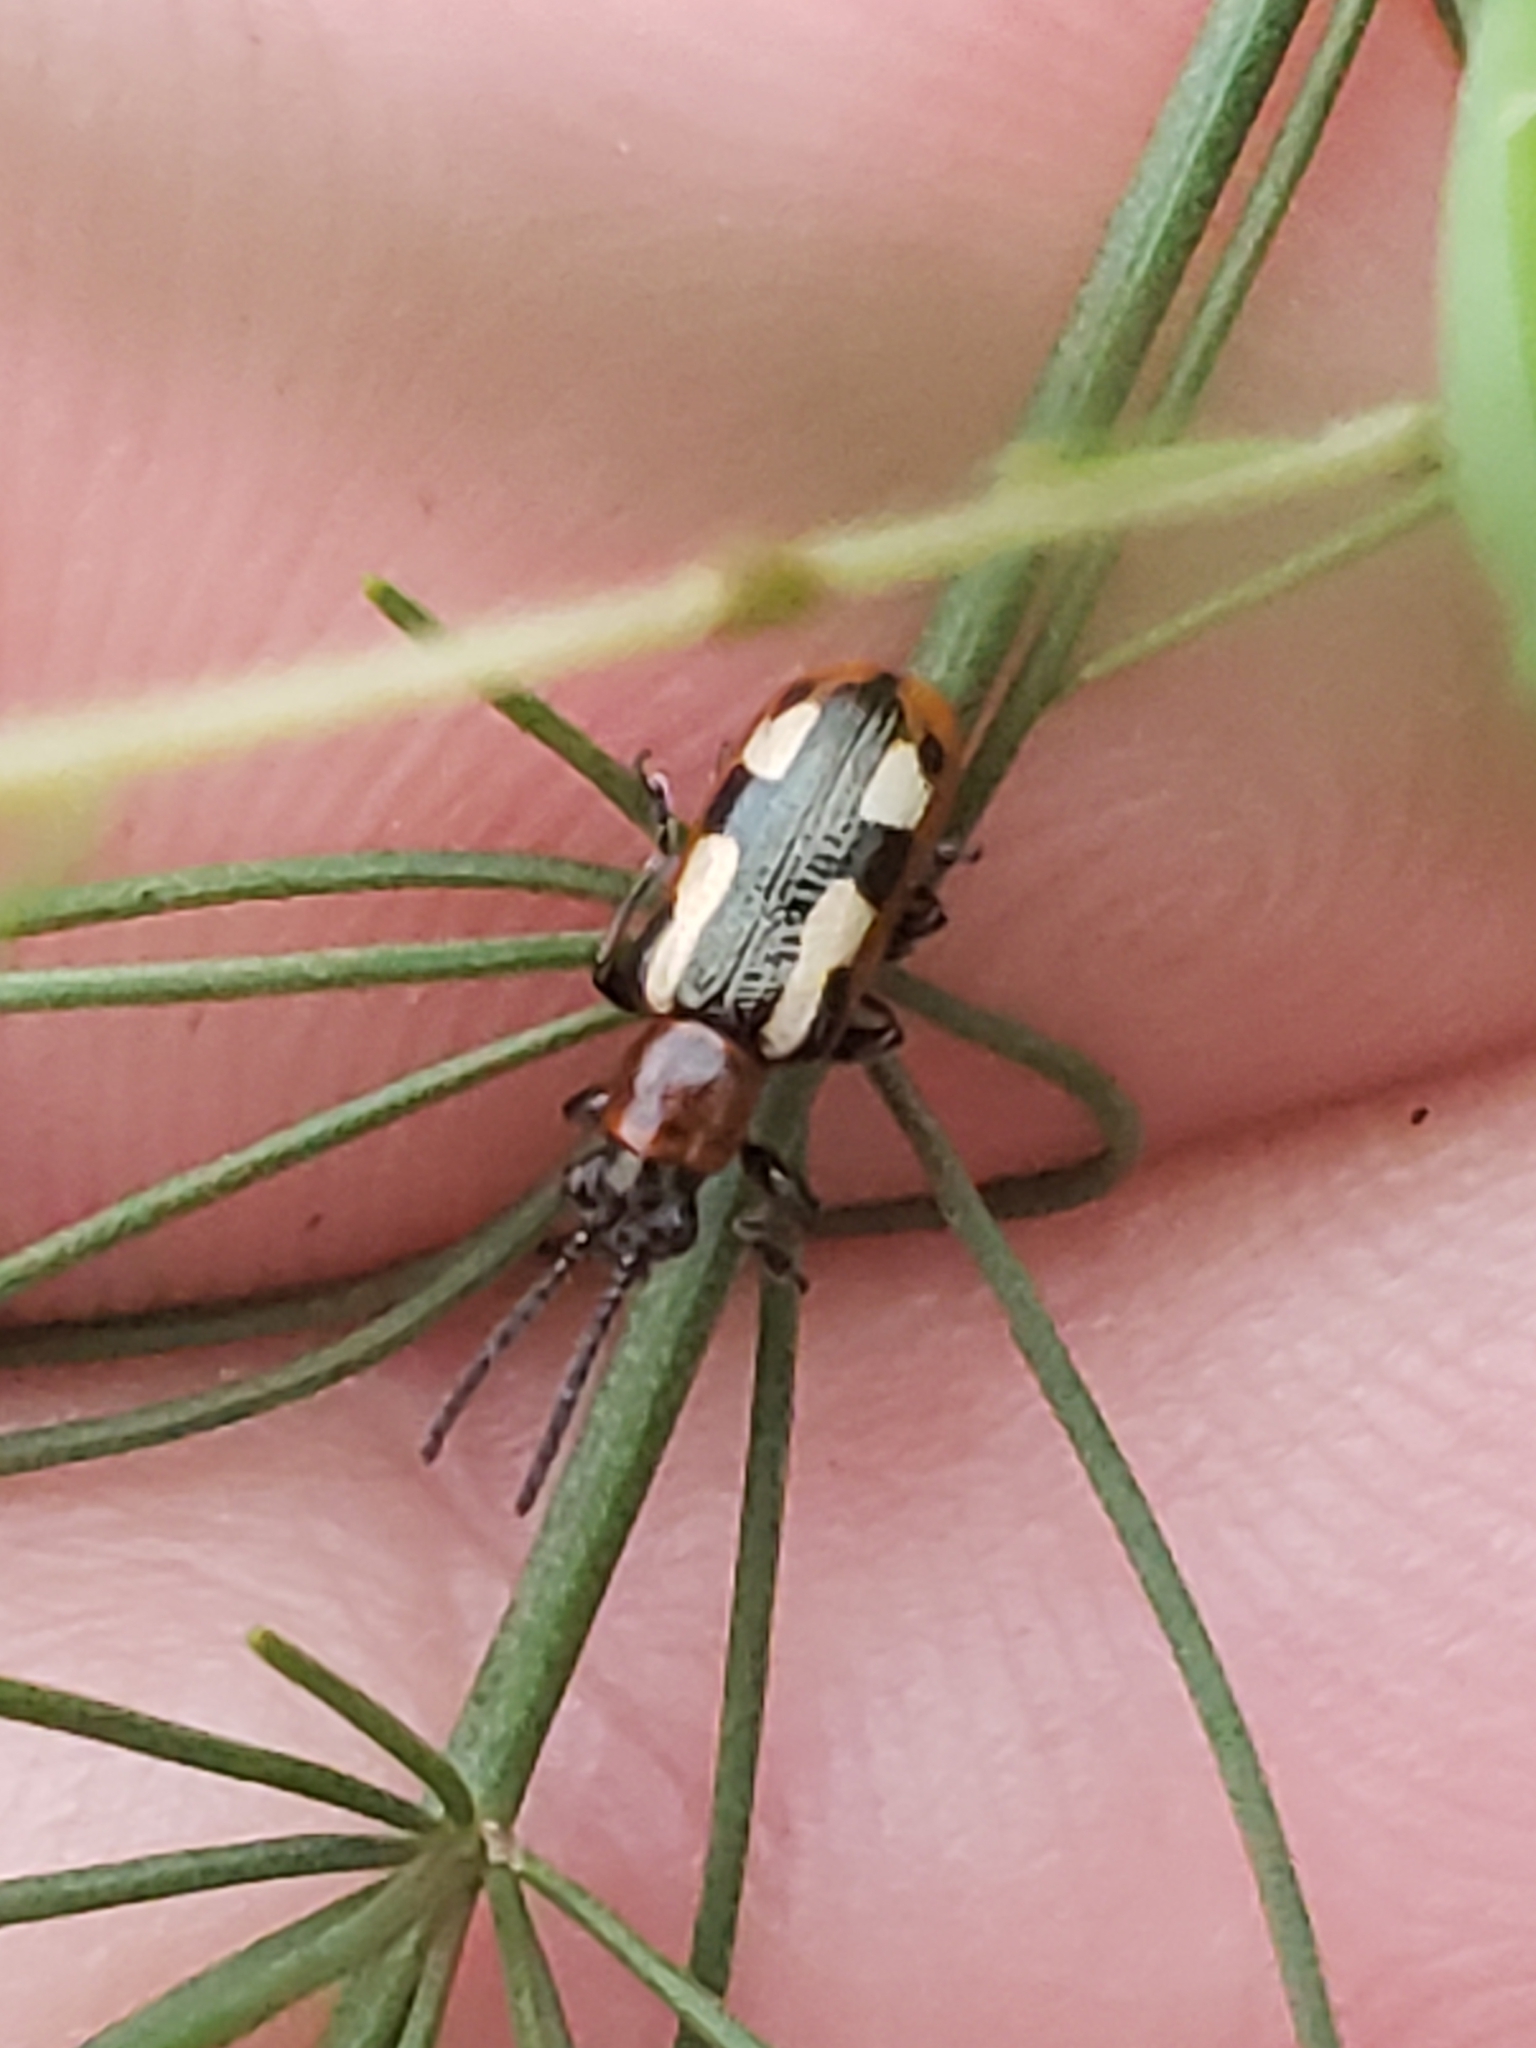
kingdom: Animalia
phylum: Arthropoda
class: Insecta
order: Coleoptera
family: Chrysomelidae
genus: Crioceris
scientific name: Crioceris asparagi
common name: Asparagus beetle
